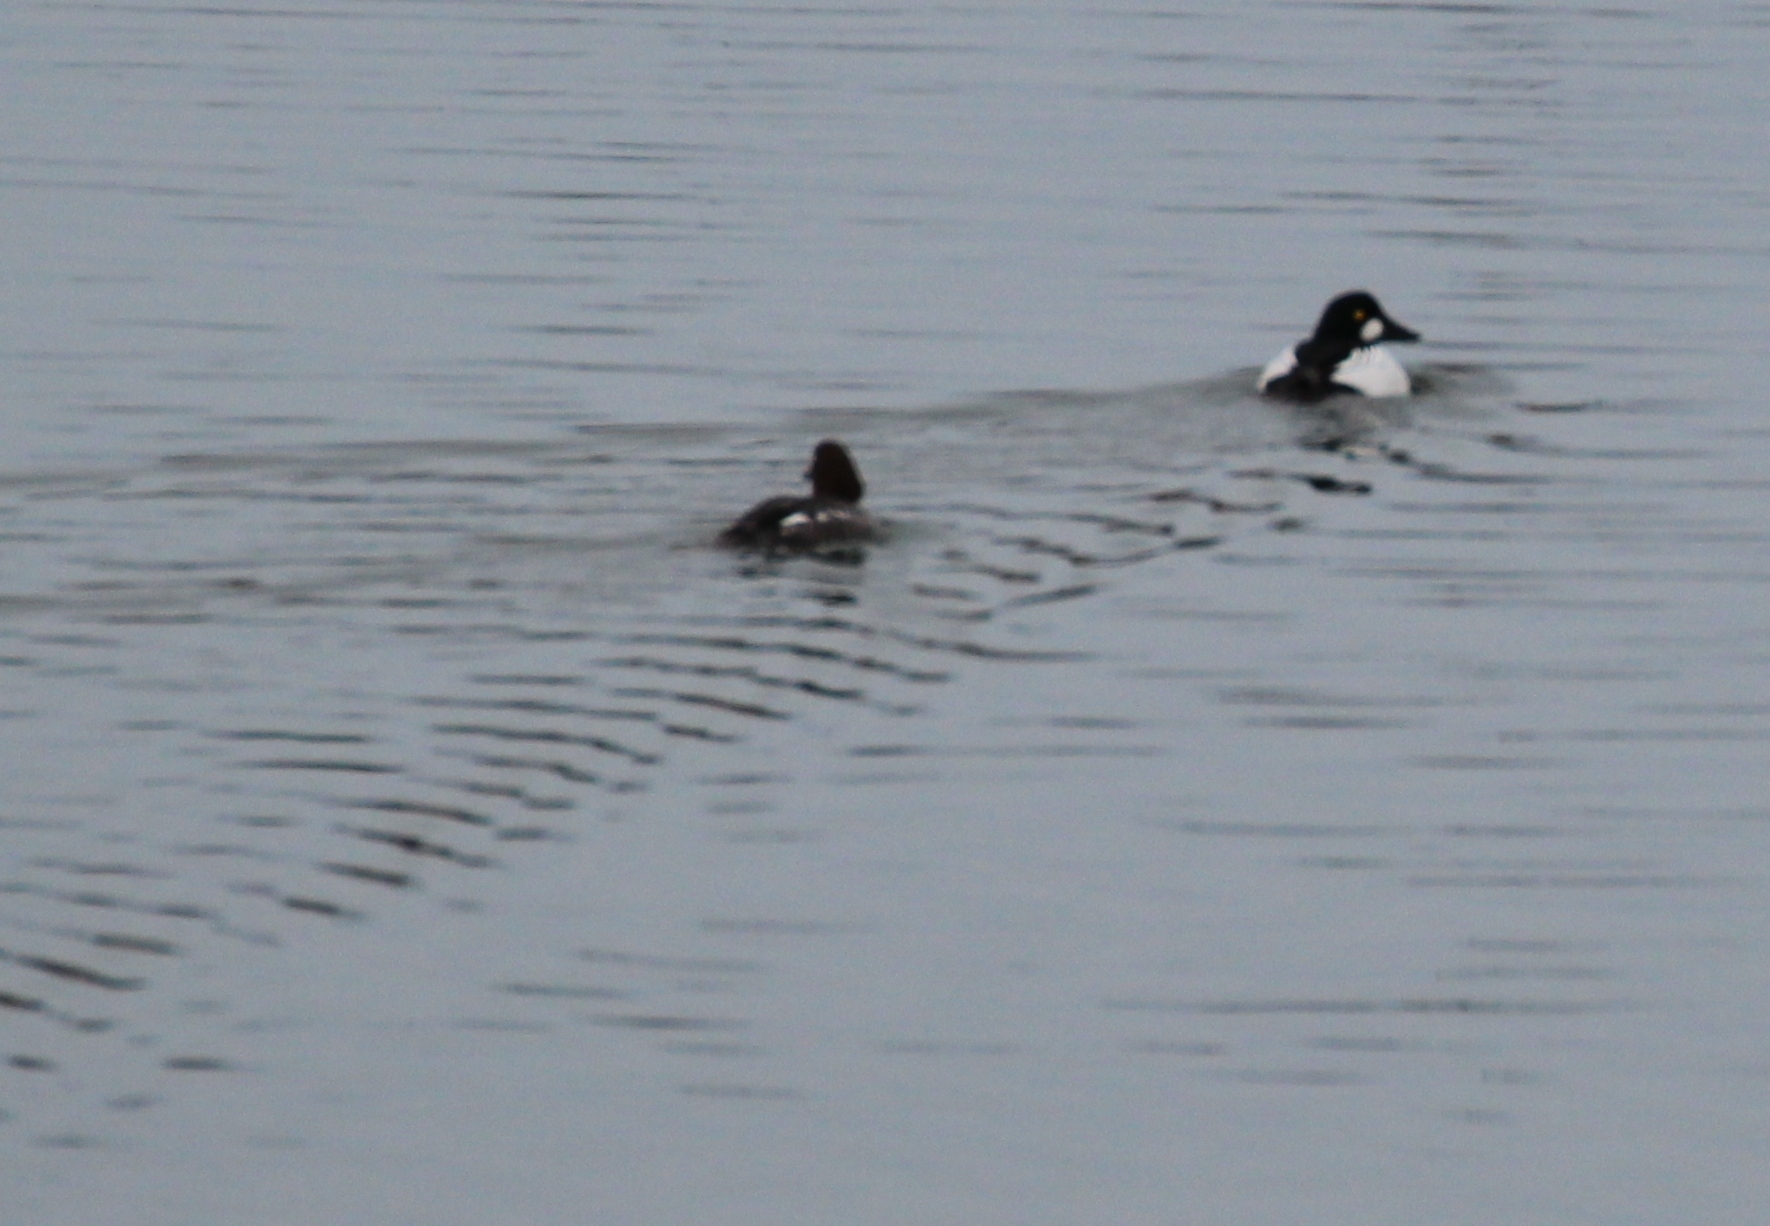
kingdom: Animalia
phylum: Chordata
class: Aves
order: Anseriformes
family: Anatidae
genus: Bucephala
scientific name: Bucephala clangula
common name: Common goldeneye
